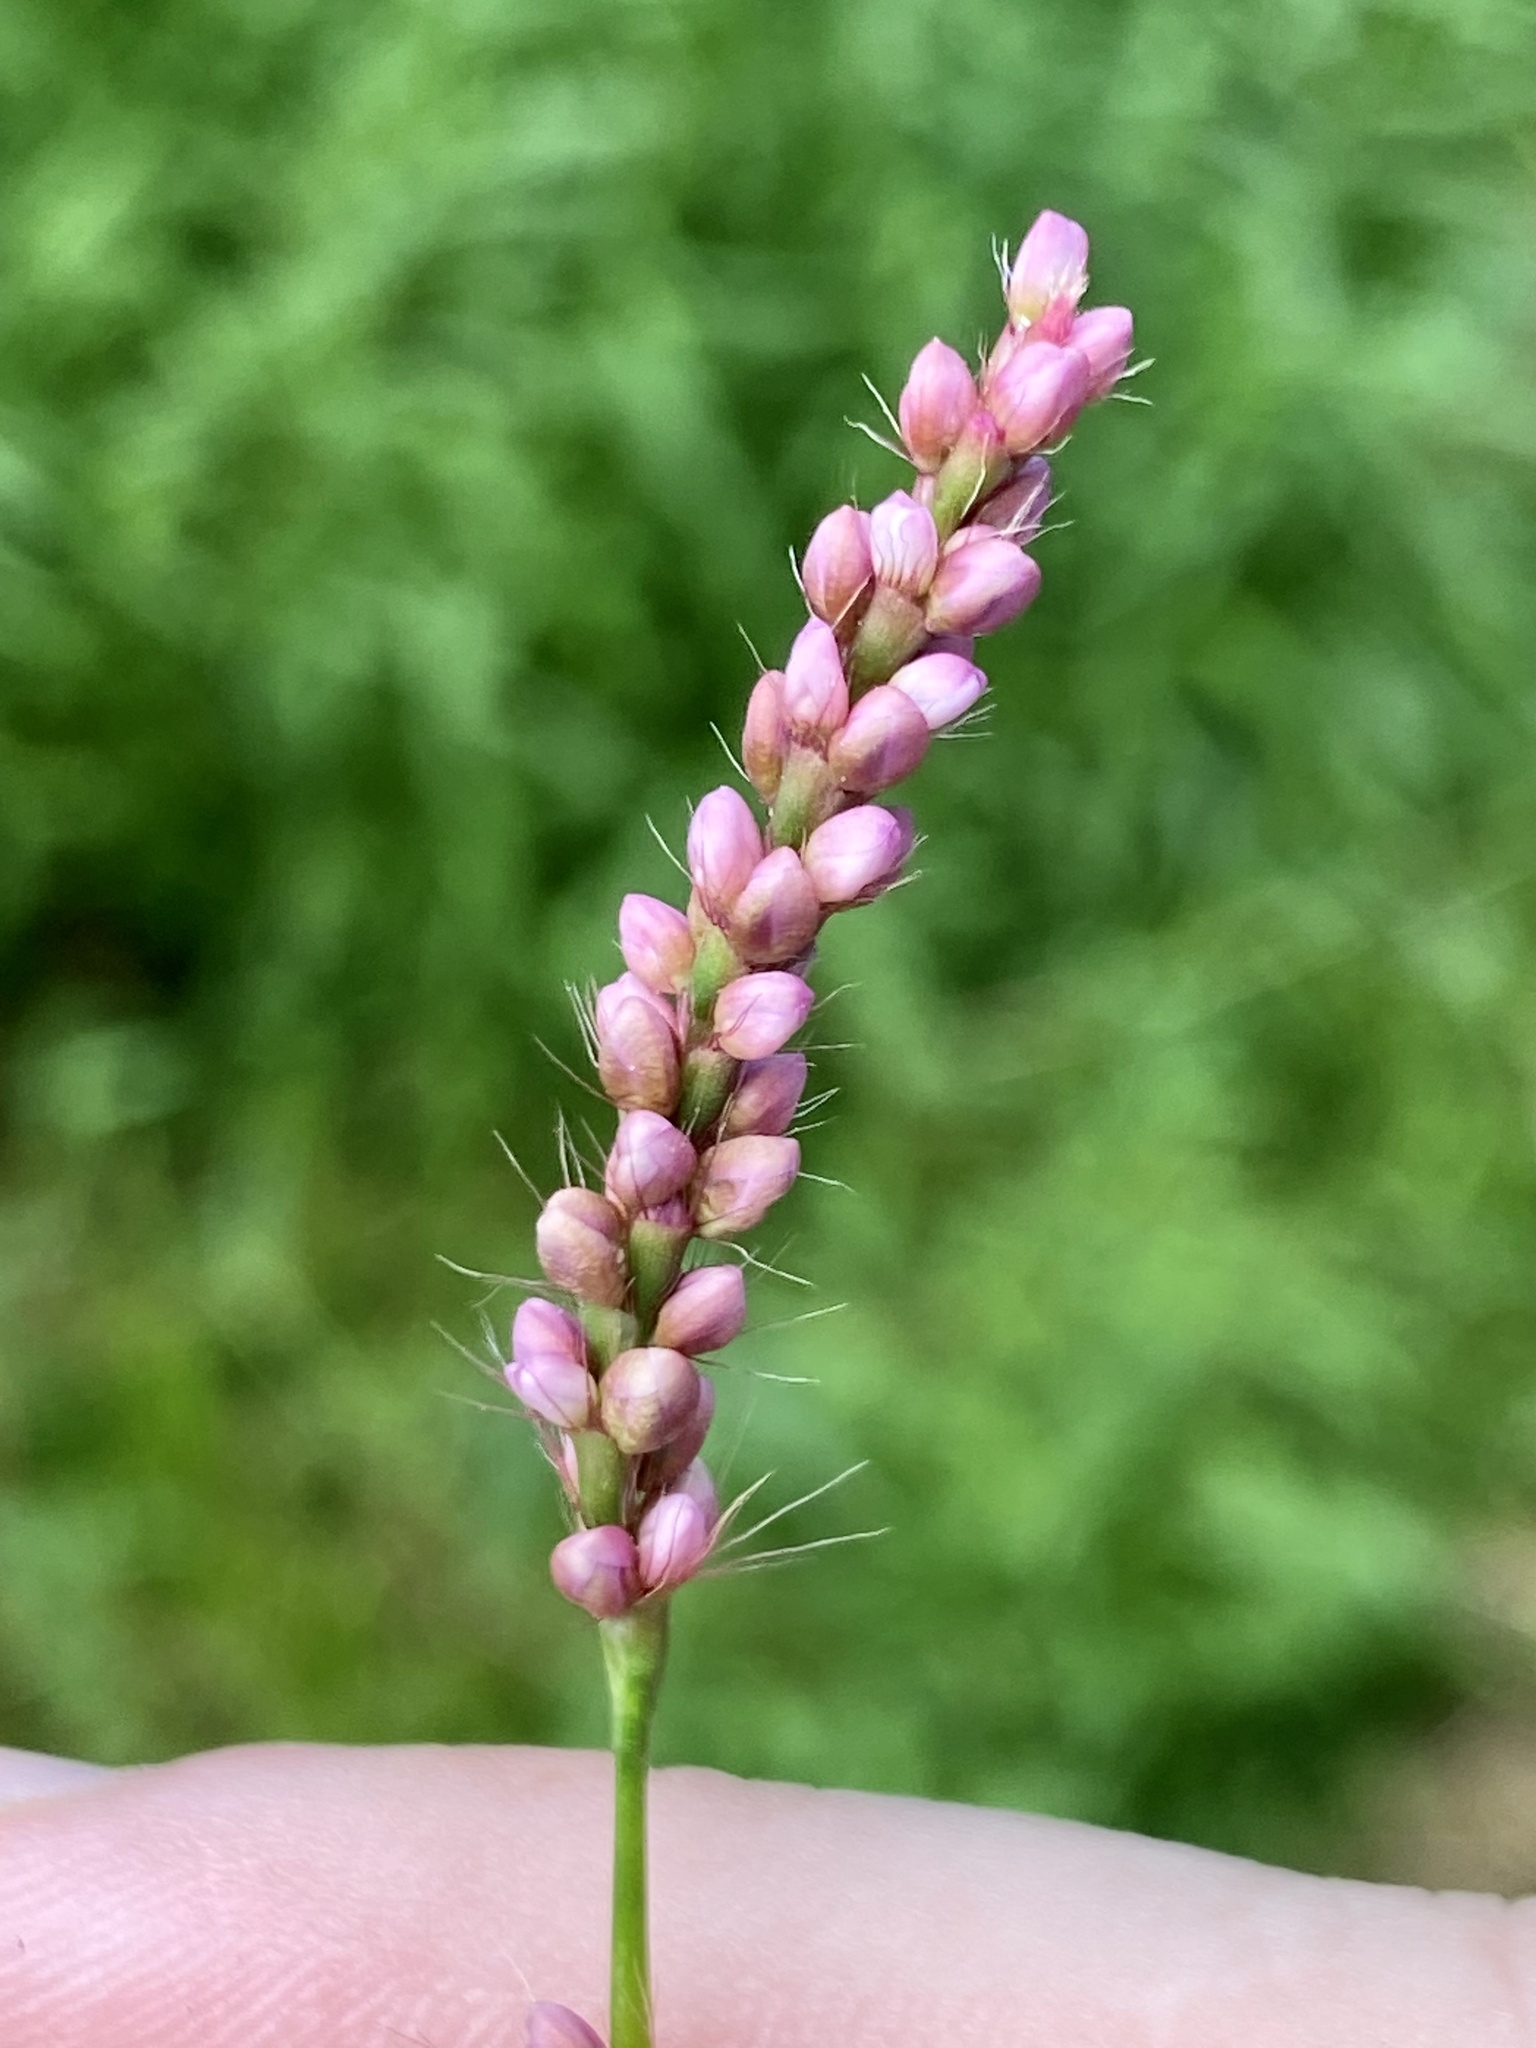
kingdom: Plantae
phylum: Tracheophyta
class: Magnoliopsida
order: Caryophyllales
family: Polygonaceae
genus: Persicaria
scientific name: Persicaria longiseta
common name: Bristly lady's-thumb
